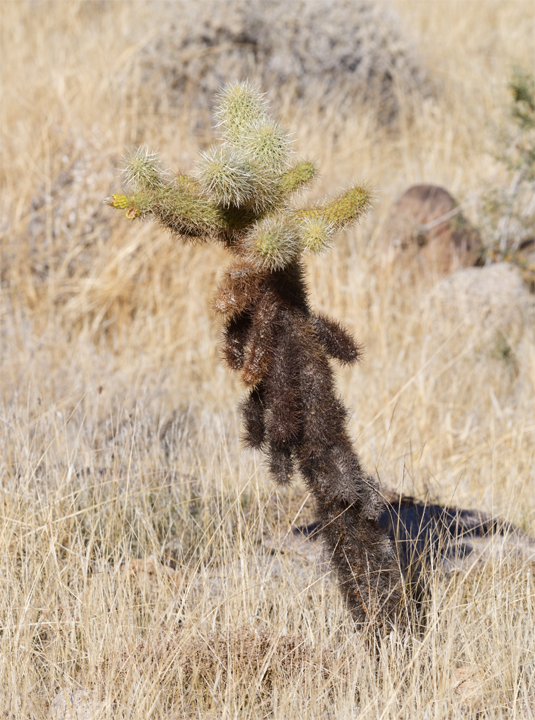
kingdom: Plantae
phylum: Tracheophyta
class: Magnoliopsida
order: Caryophyllales
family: Cactaceae
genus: Cylindropuntia
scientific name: Cylindropuntia fosbergii
